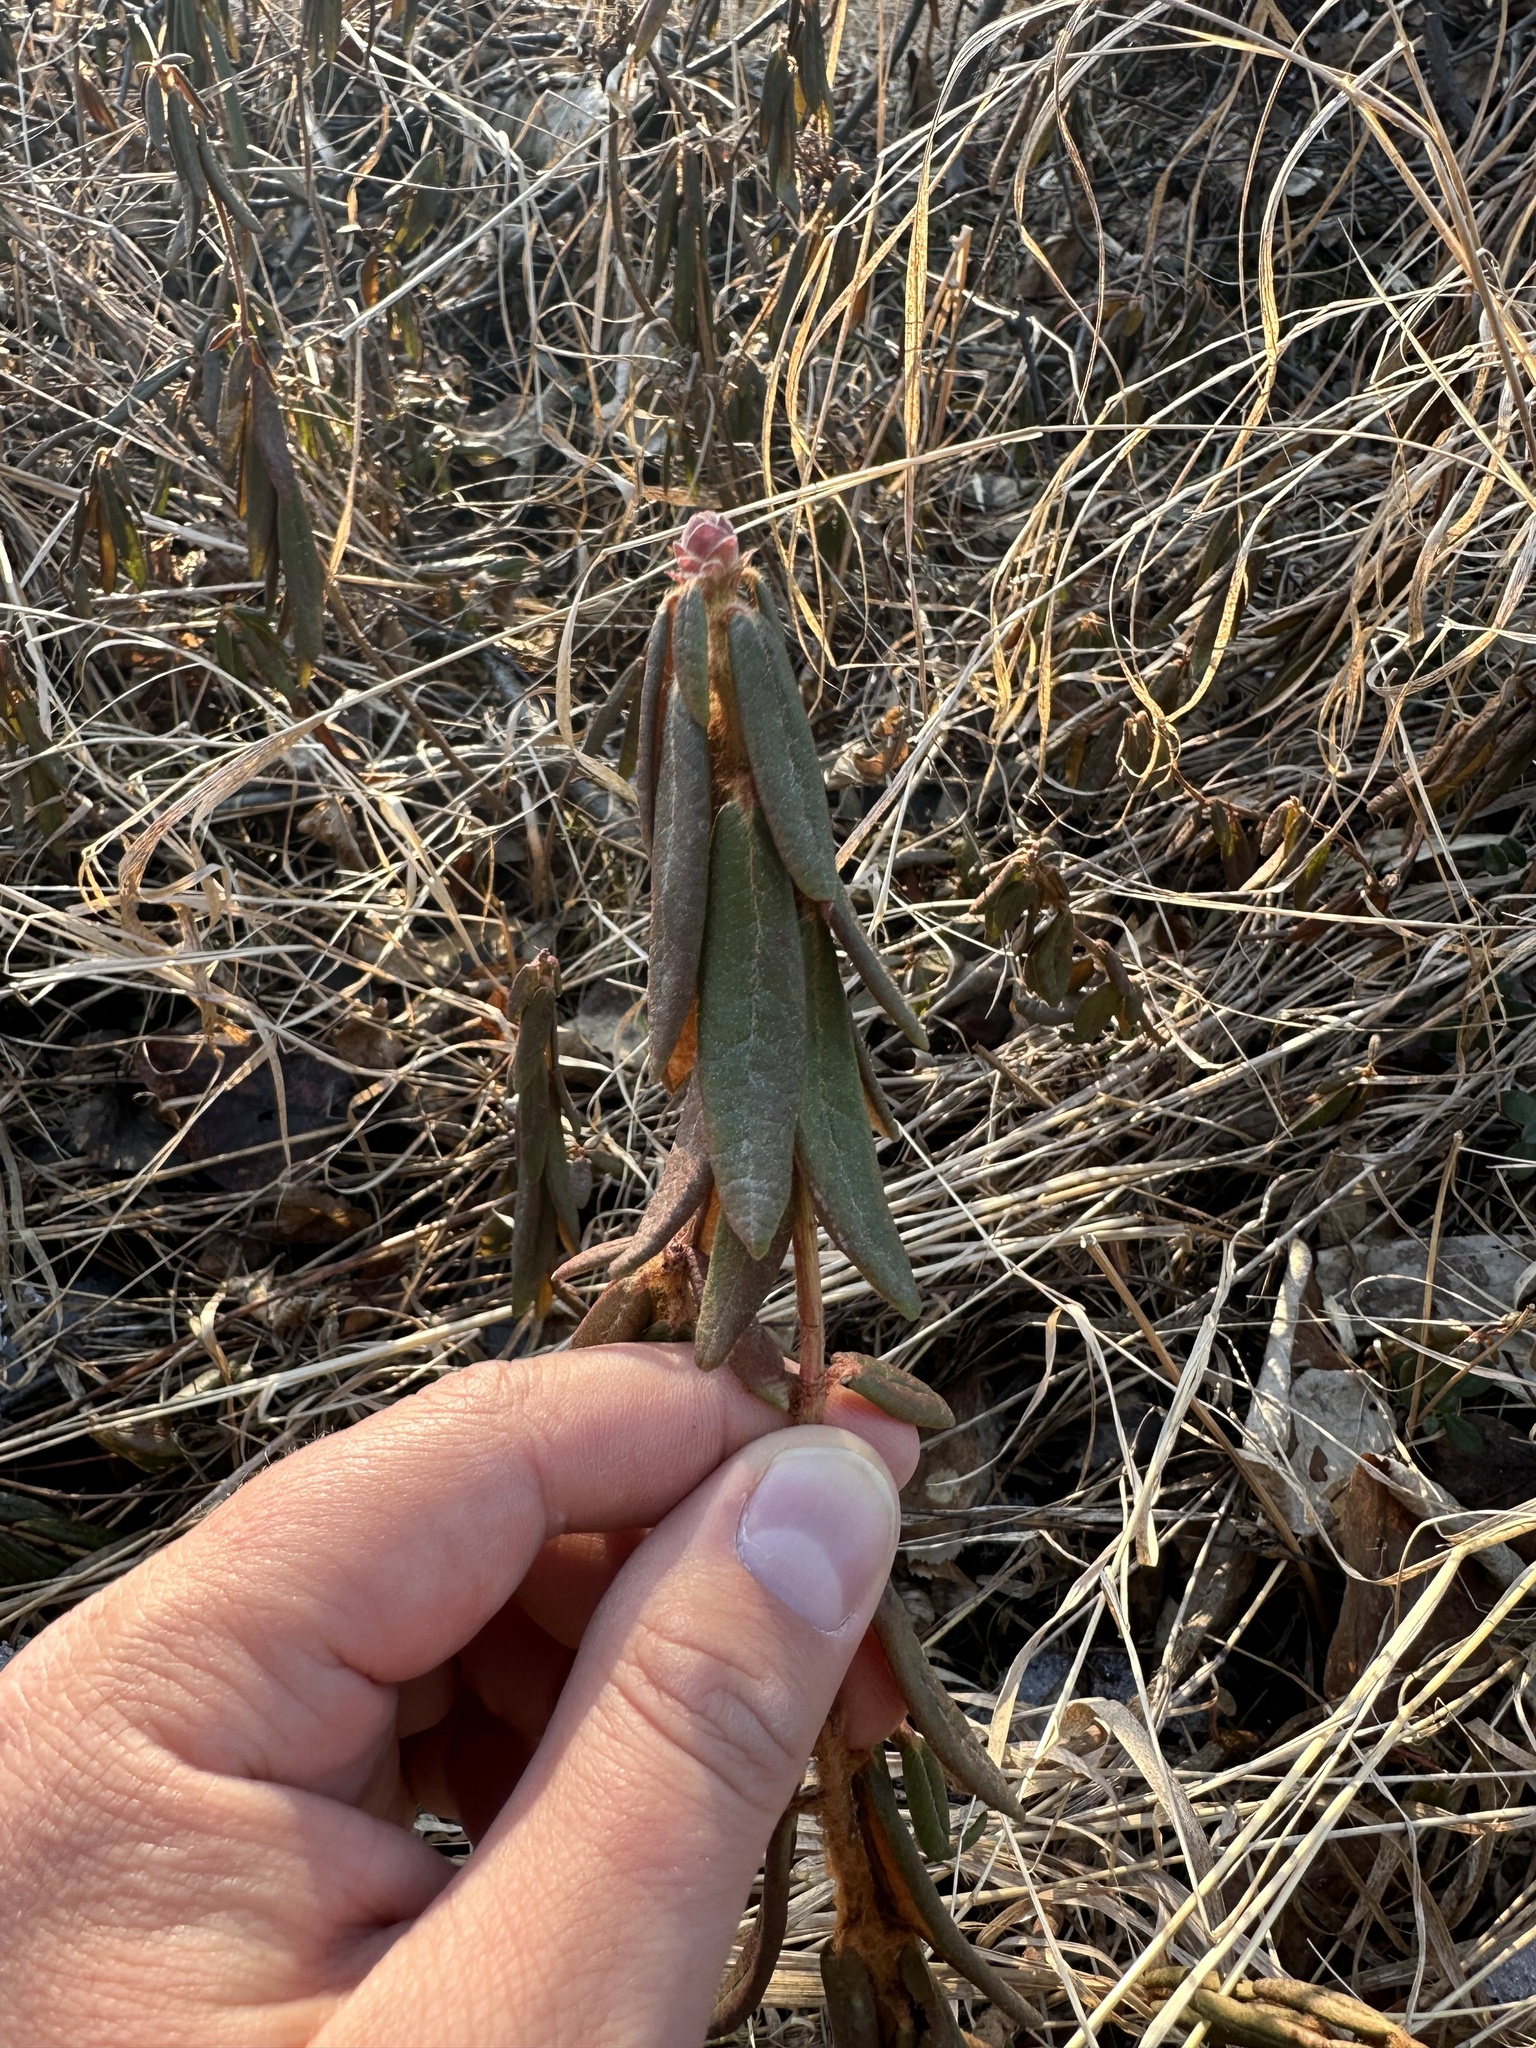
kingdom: Plantae
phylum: Tracheophyta
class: Magnoliopsida
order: Ericales
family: Ericaceae
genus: Rhododendron
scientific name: Rhododendron groenlandicum
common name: Bog labrador tea
